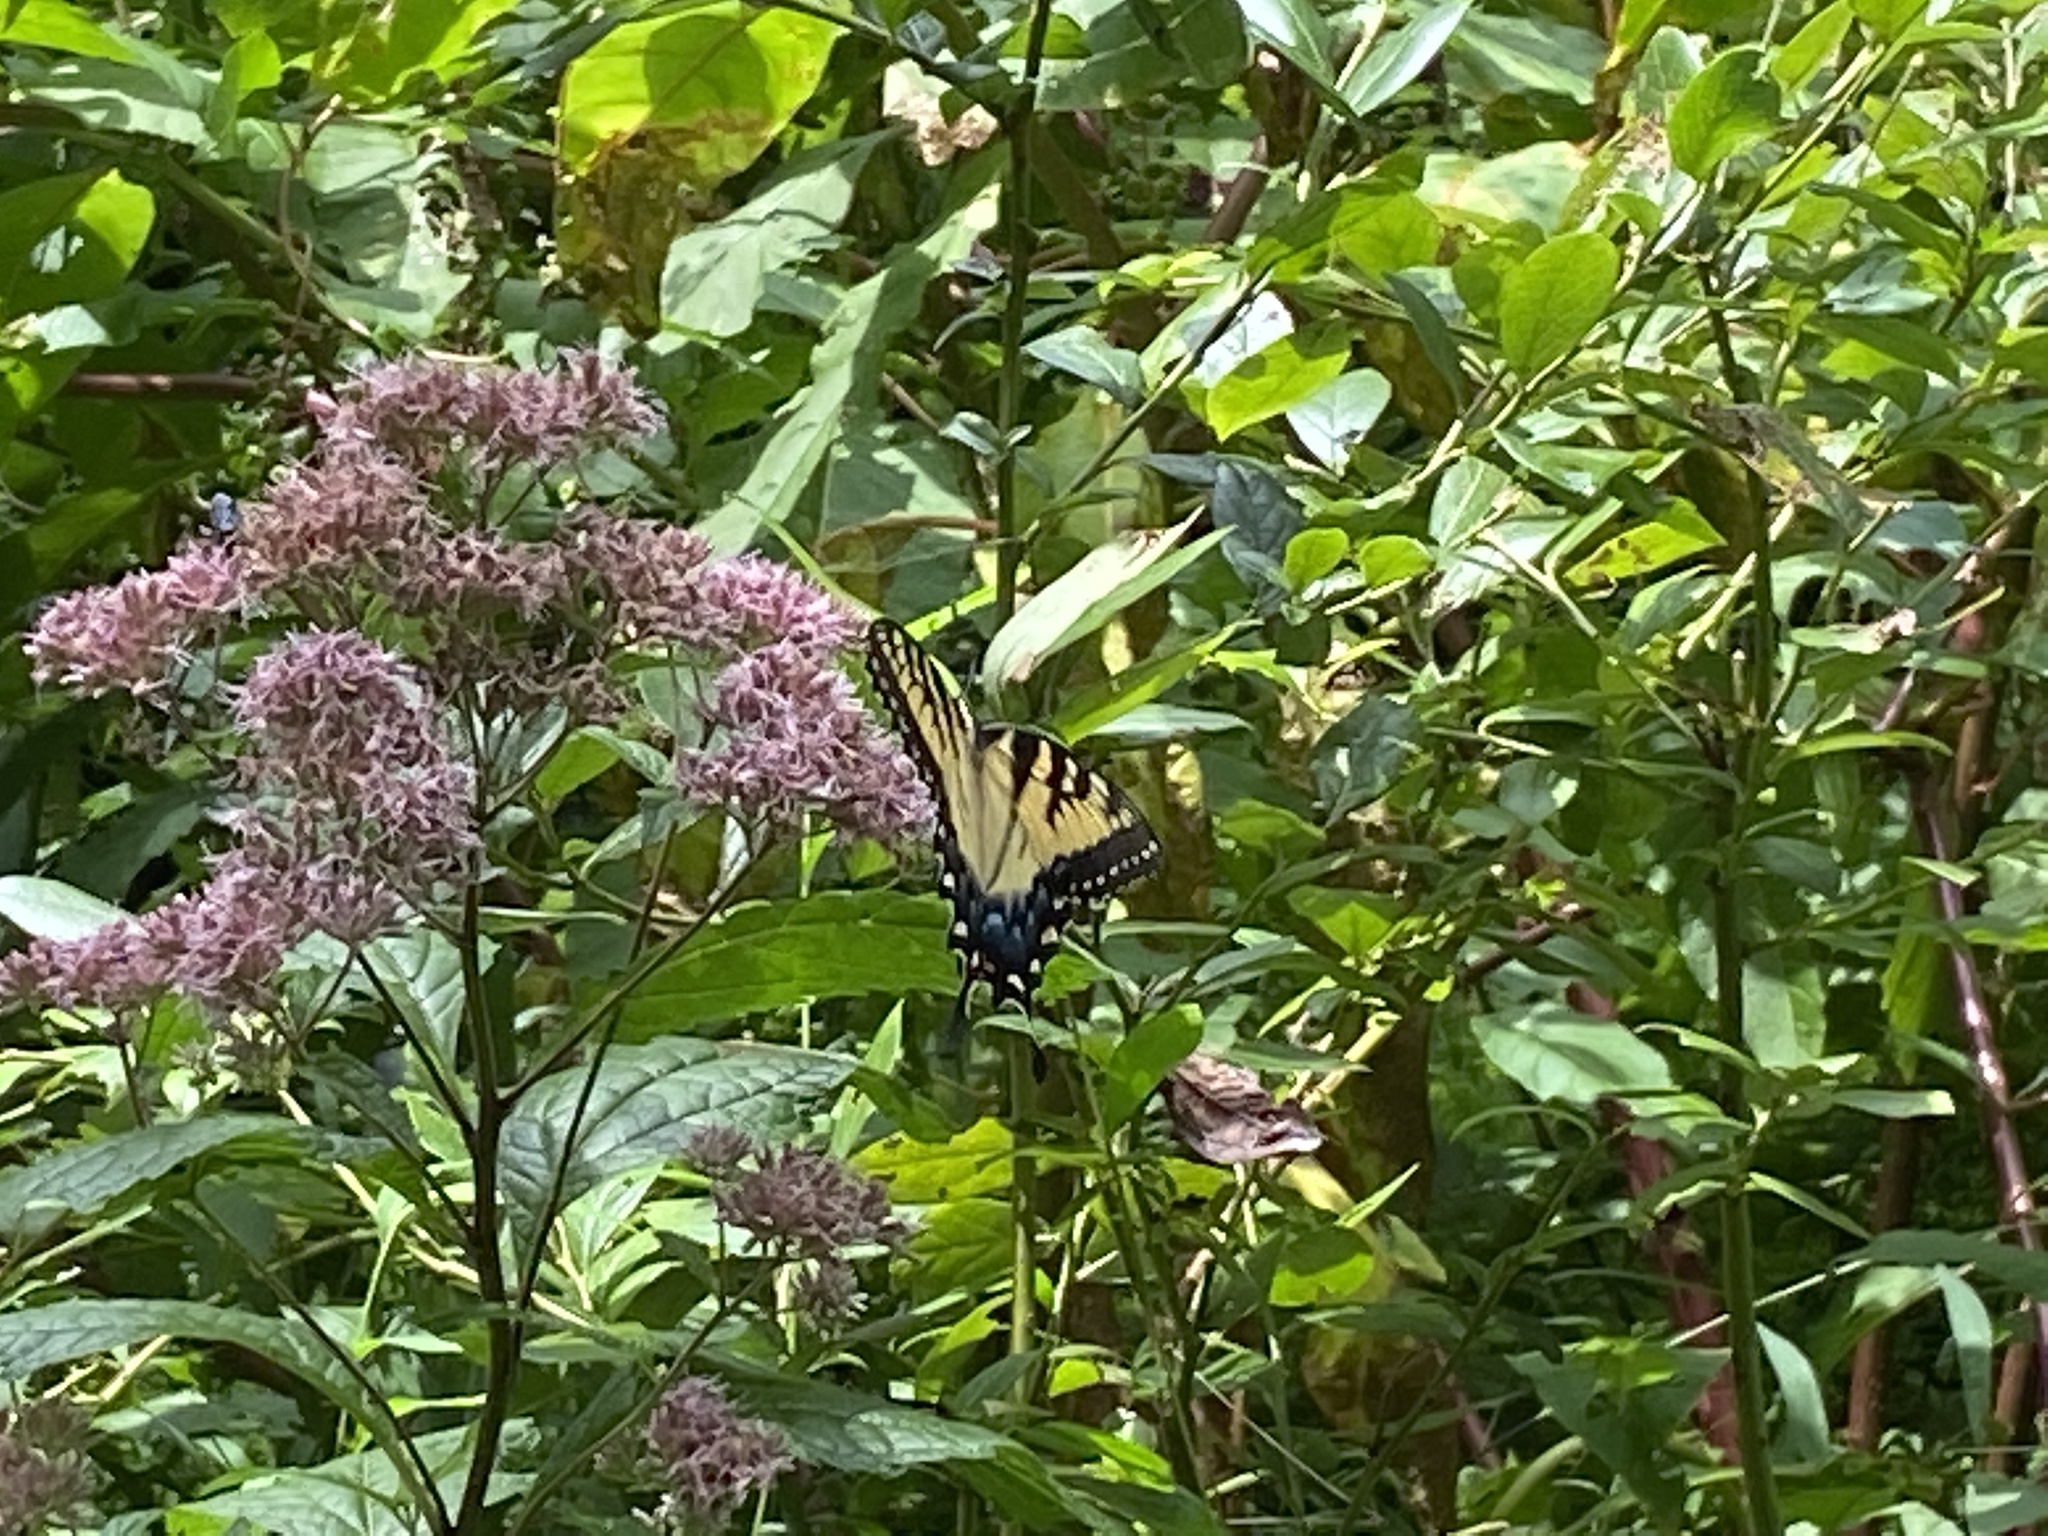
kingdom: Animalia
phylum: Arthropoda
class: Insecta
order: Lepidoptera
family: Papilionidae
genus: Papilio
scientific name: Papilio glaucus
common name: Tiger swallowtail
